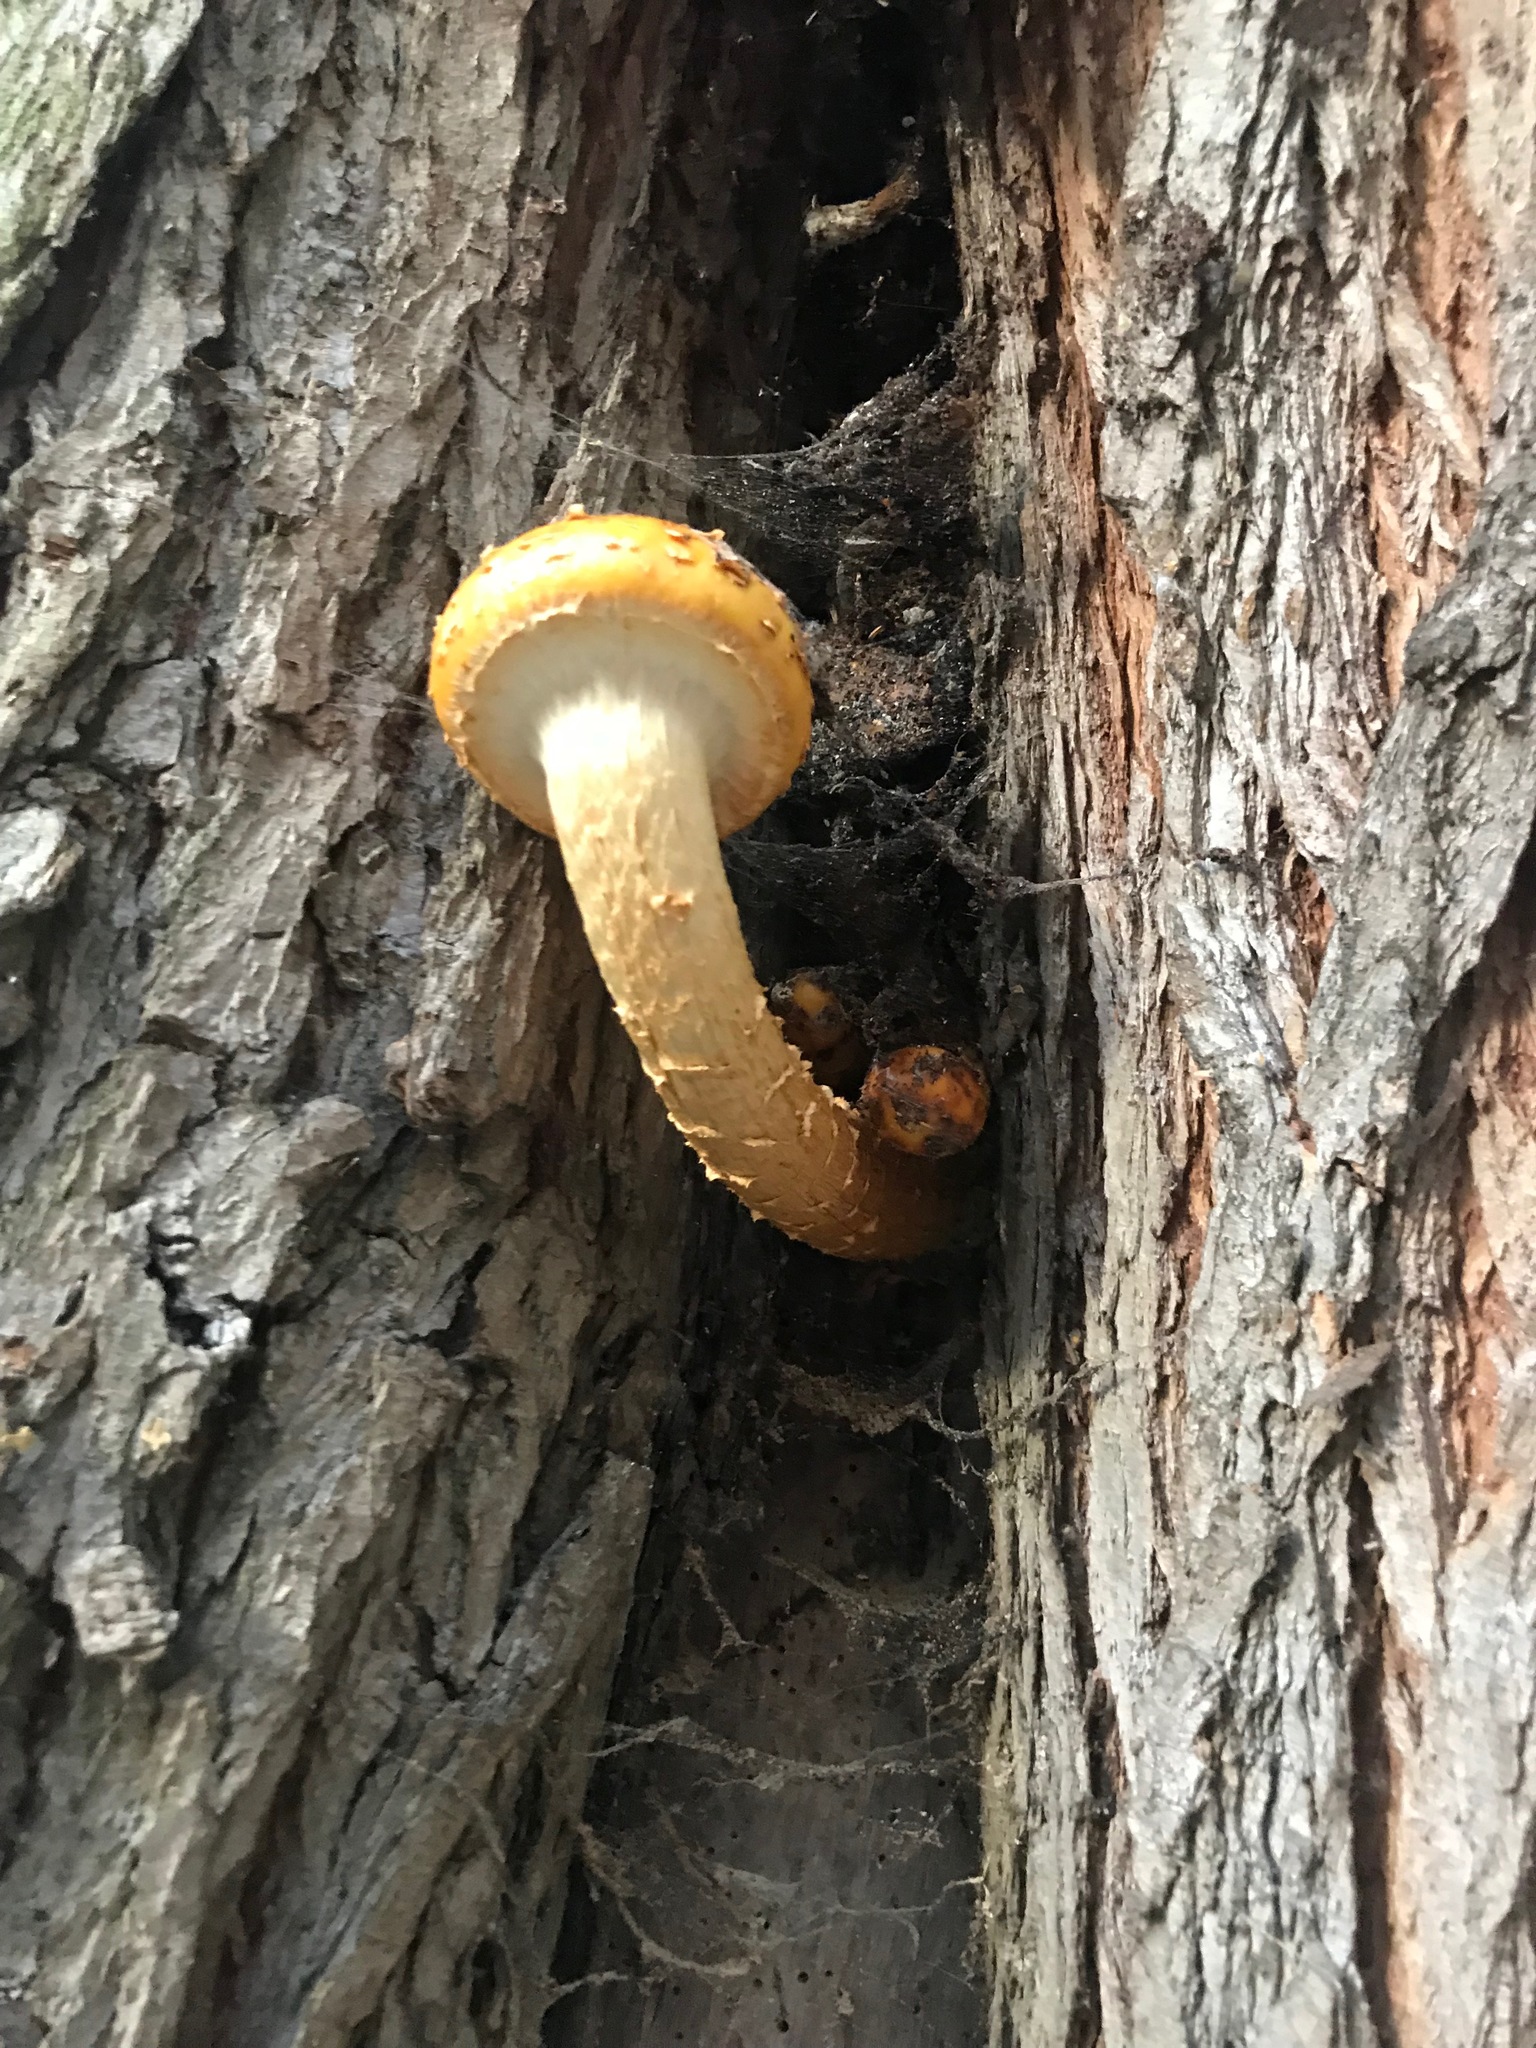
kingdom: Fungi
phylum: Basidiomycota
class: Agaricomycetes
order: Agaricales
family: Strophariaceae
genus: Pholiota
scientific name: Pholiota aurivella
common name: Golden scalycap
